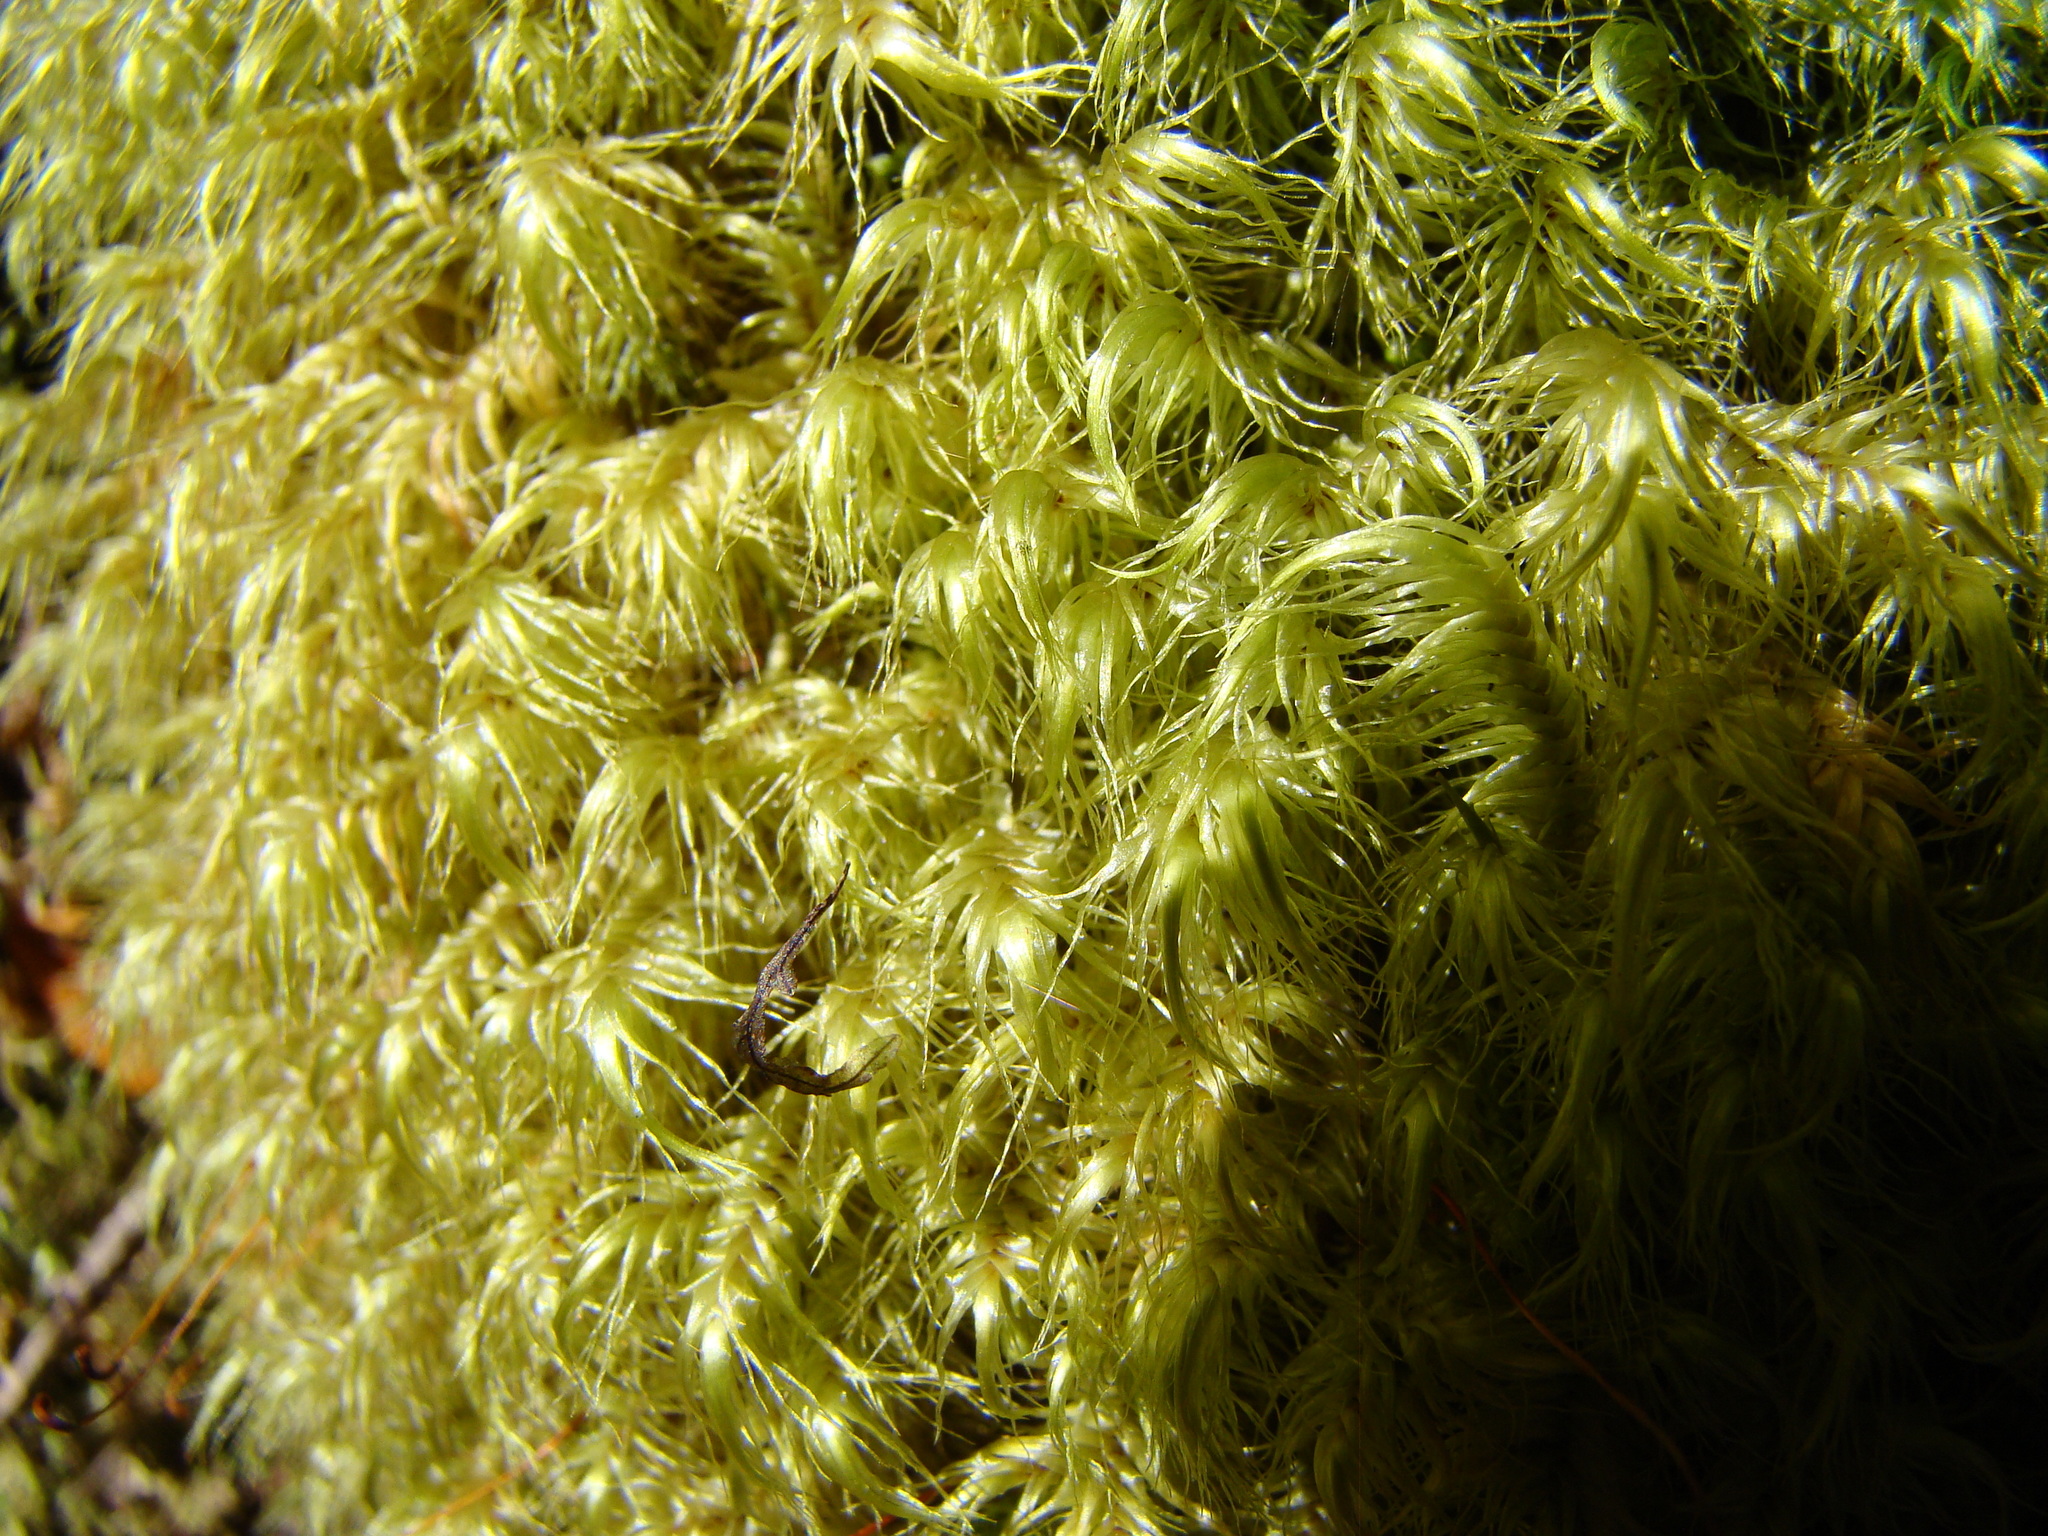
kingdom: Plantae
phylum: Bryophyta
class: Bryopsida
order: Dicranales
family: Dicranaceae
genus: Dicranoloma
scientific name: Dicranoloma
